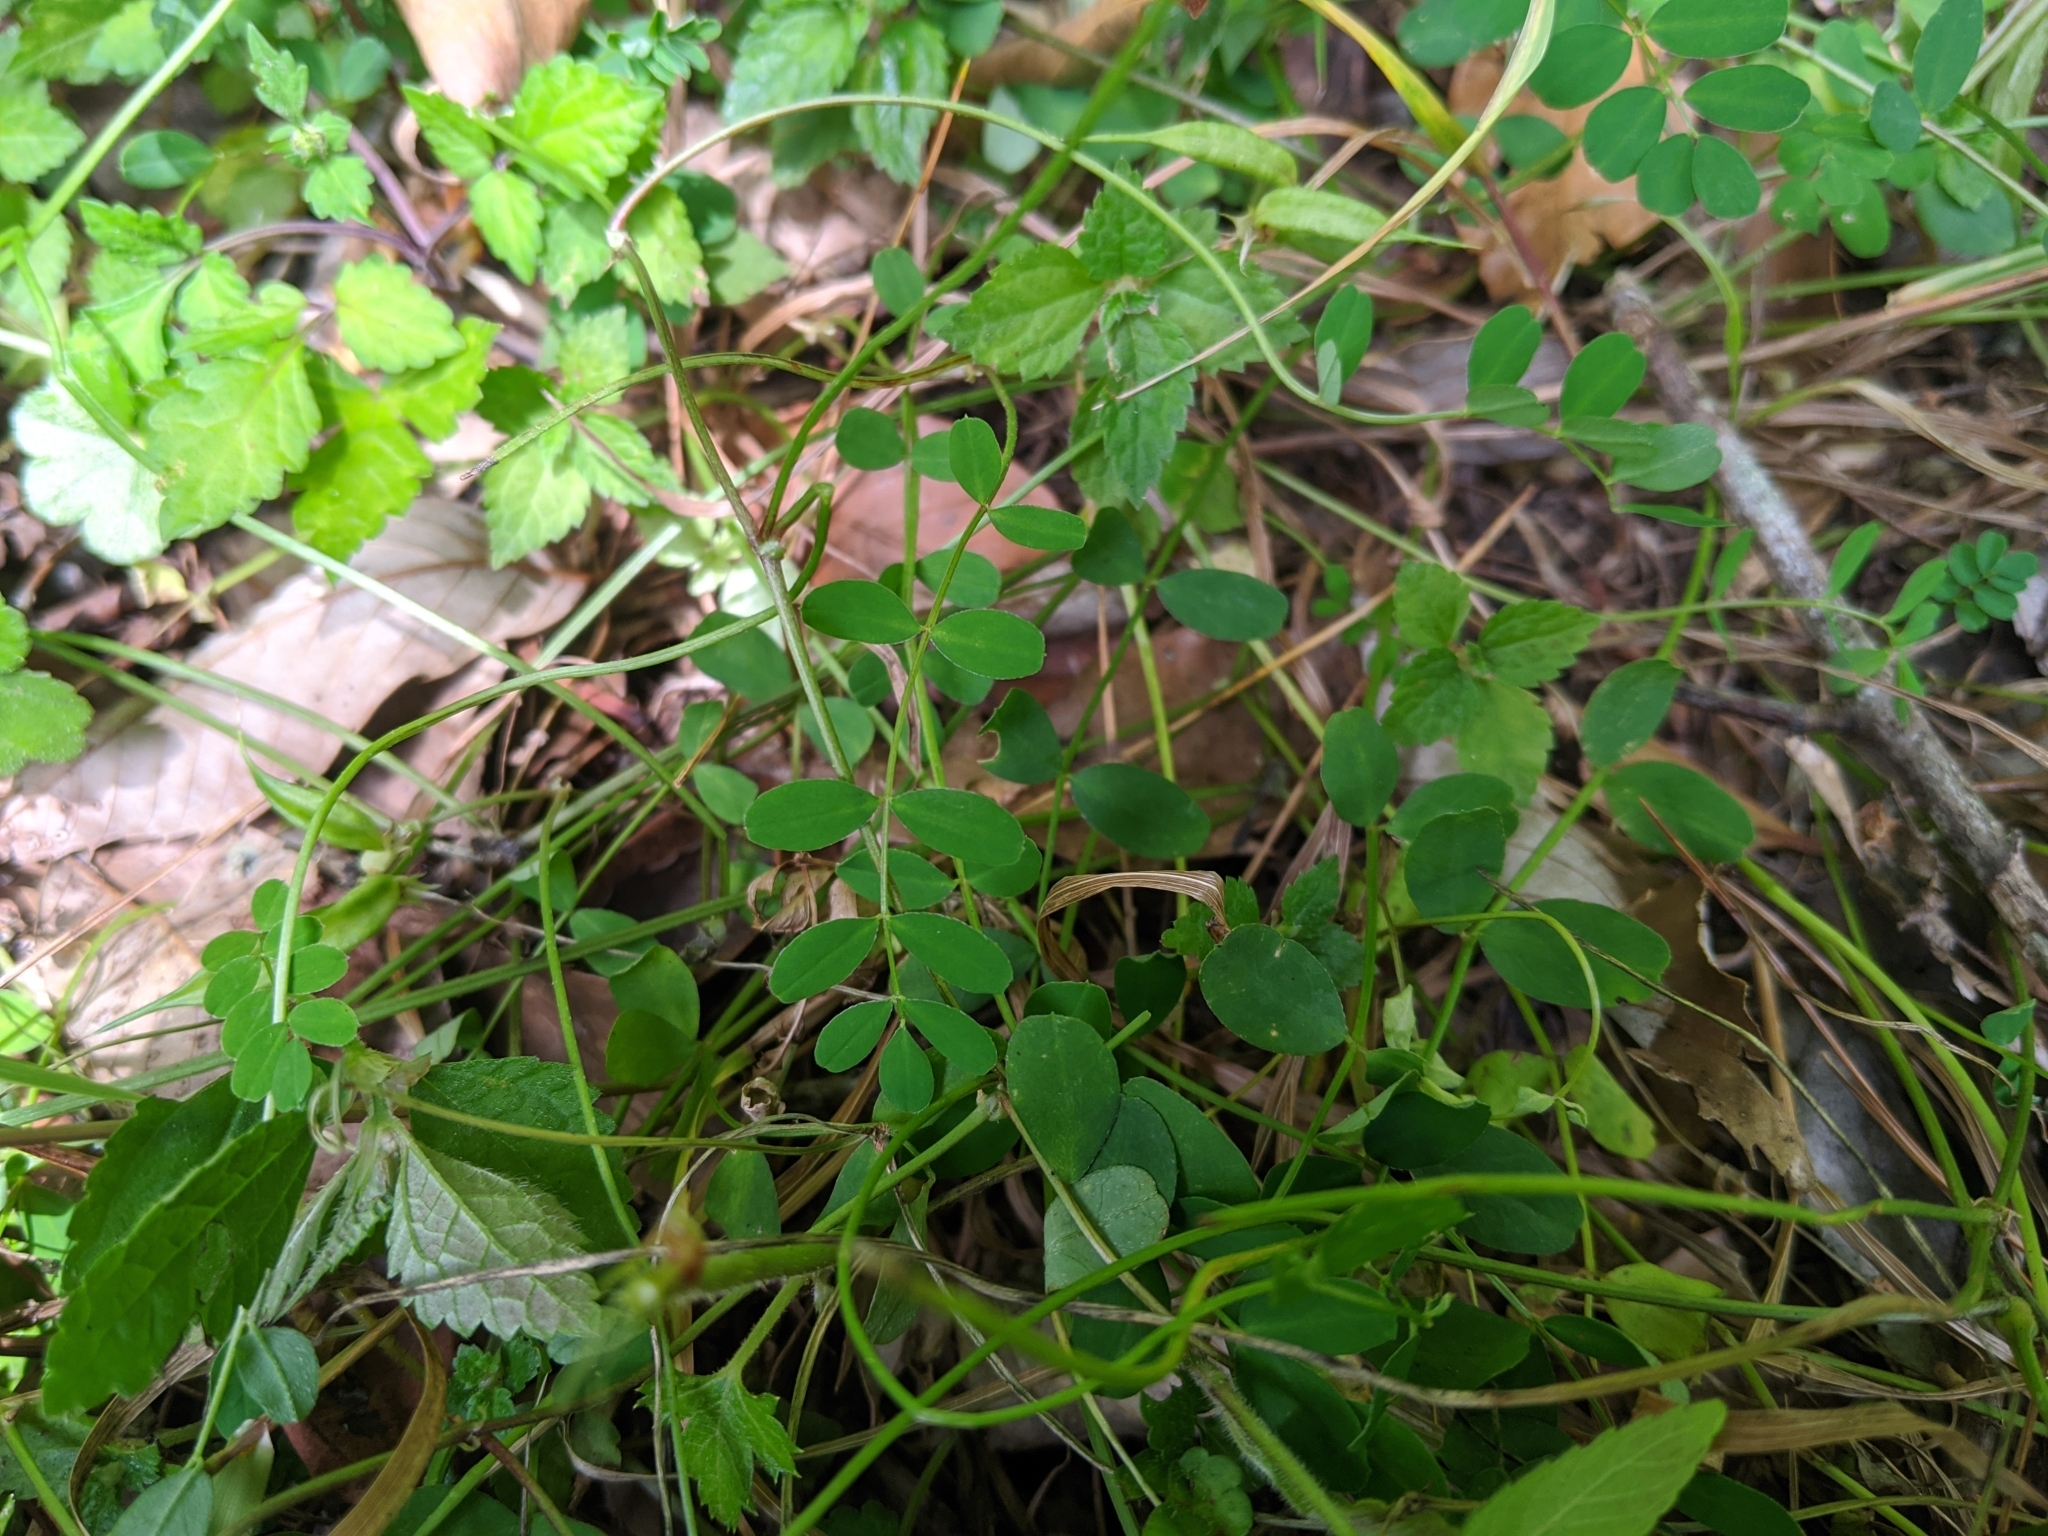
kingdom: Plantae
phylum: Tracheophyta
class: Magnoliopsida
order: Fabales
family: Fabaceae
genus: Astragalus
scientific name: Astragalus nokoensis
